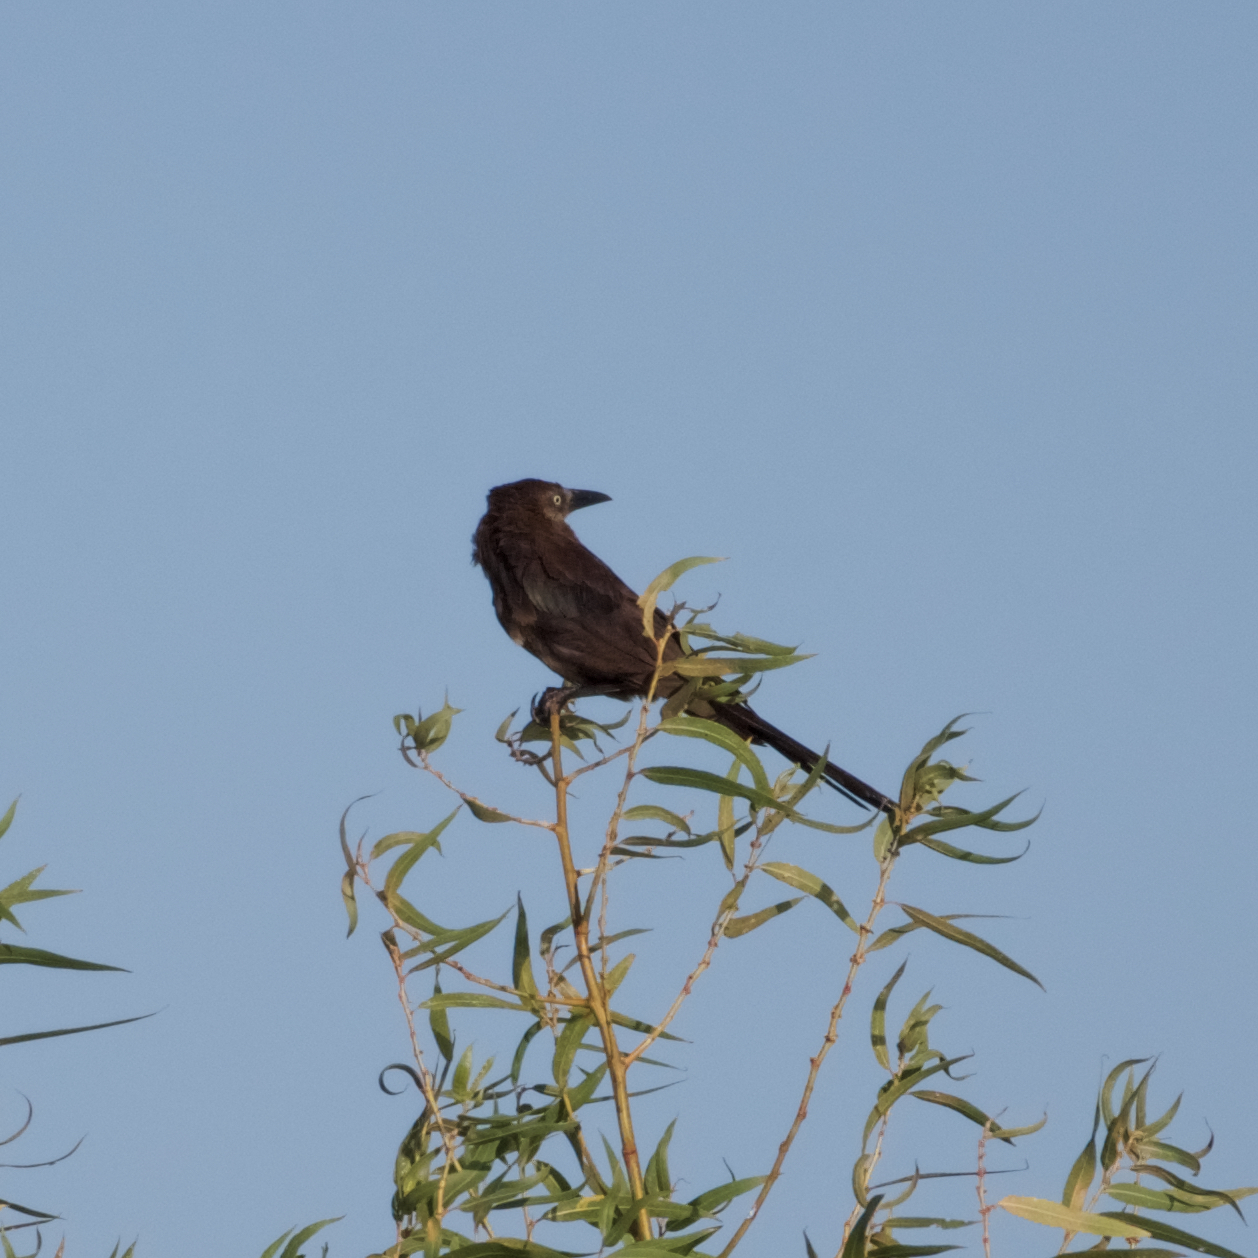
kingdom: Animalia
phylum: Chordata
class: Aves
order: Passeriformes
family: Icteridae
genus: Quiscalus
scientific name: Quiscalus mexicanus
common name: Great-tailed grackle
